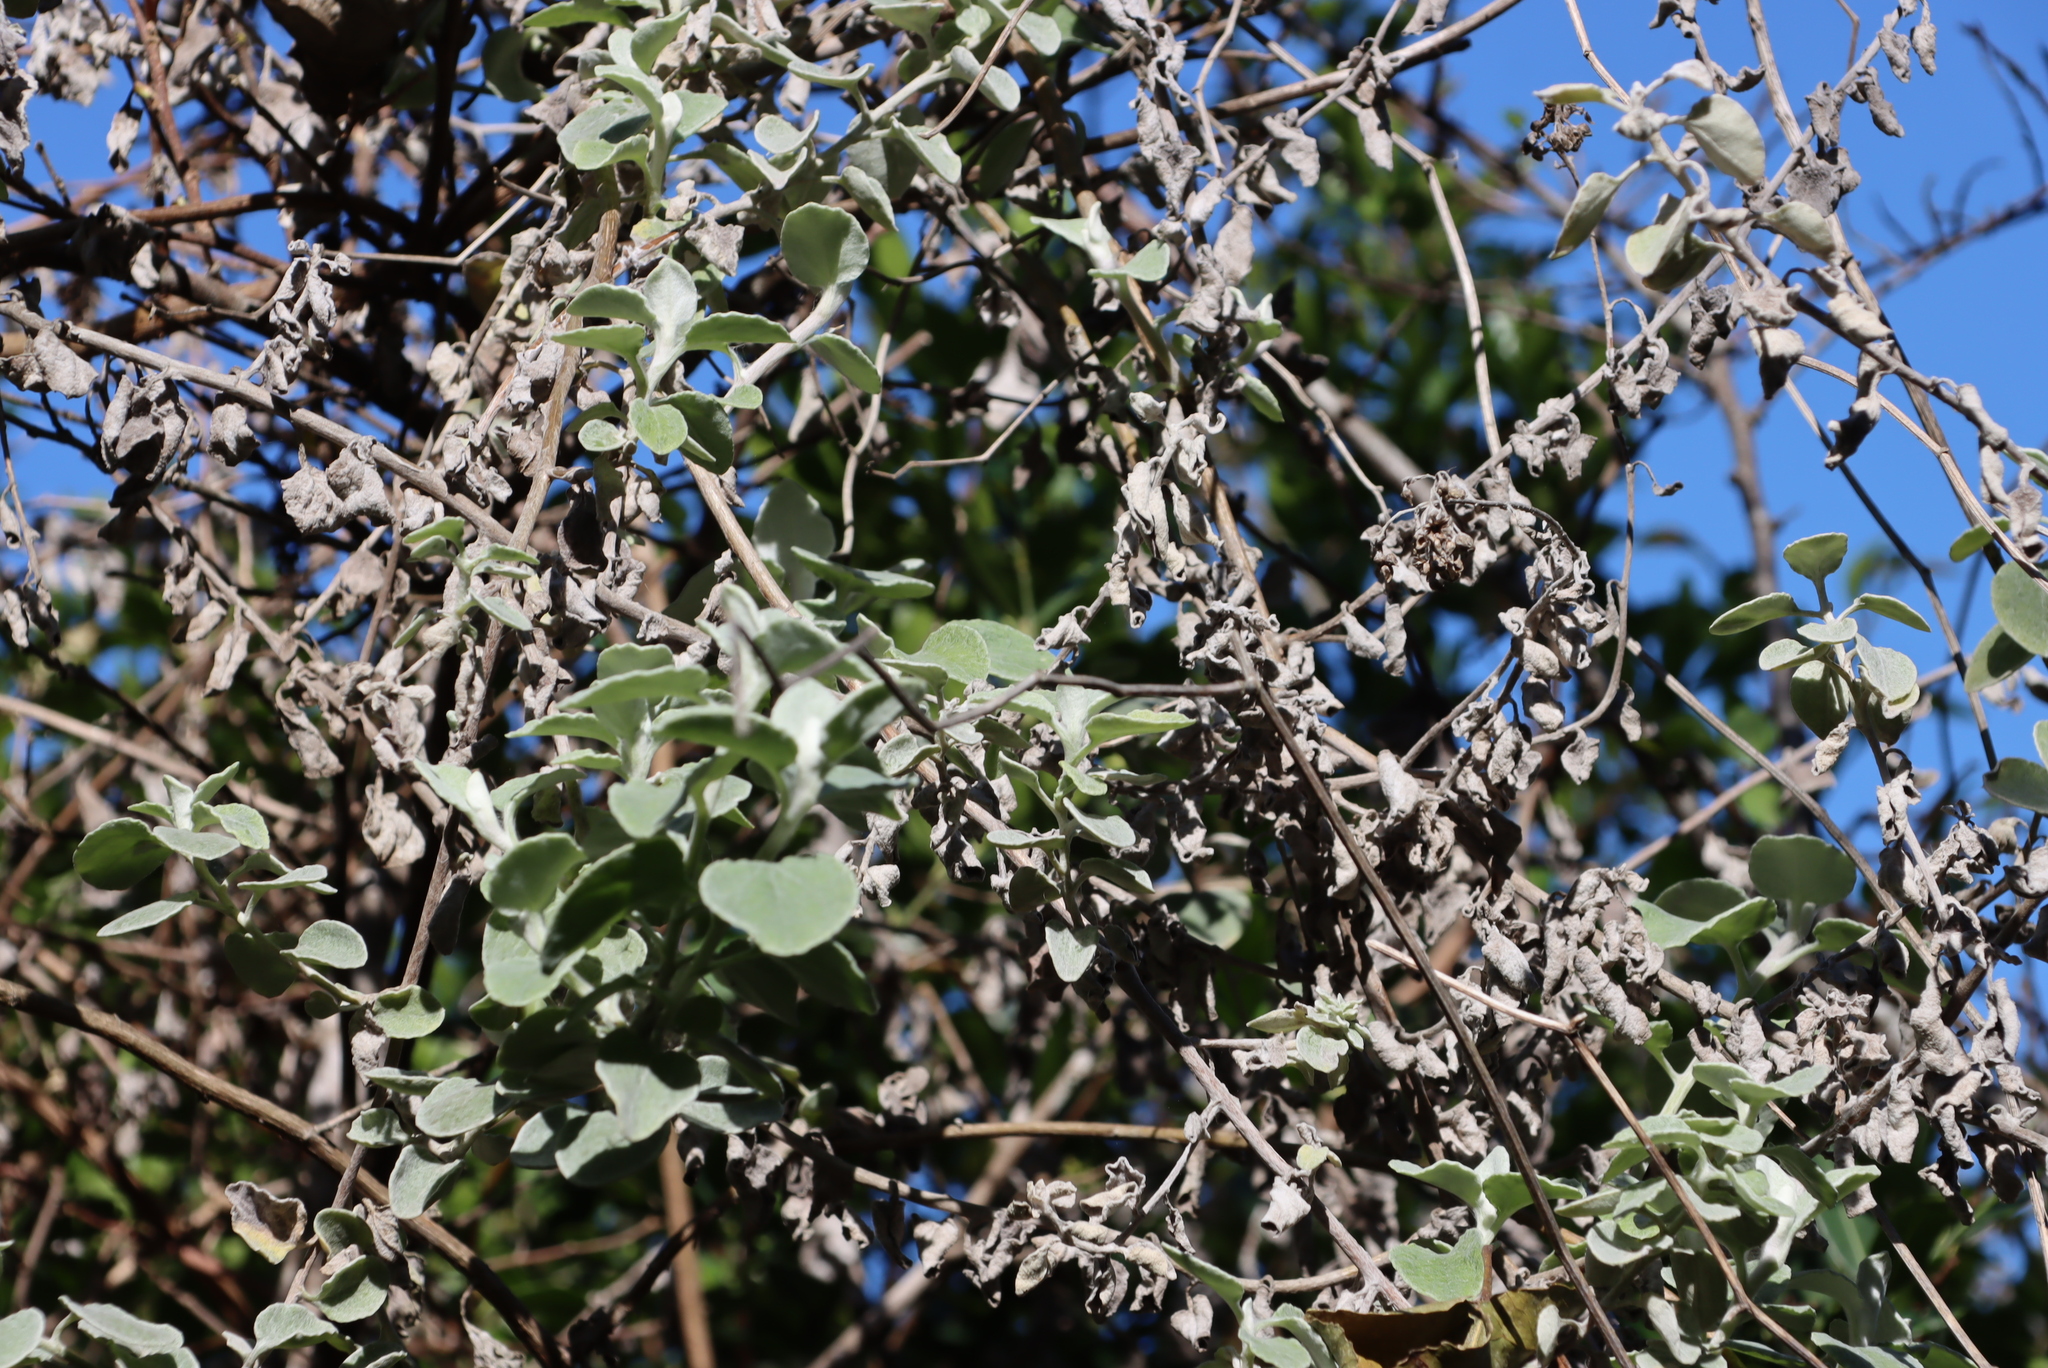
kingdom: Plantae
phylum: Tracheophyta
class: Magnoliopsida
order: Asterales
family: Asteraceae
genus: Helichrysum
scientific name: Helichrysum petiolare
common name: Licorice-plant
